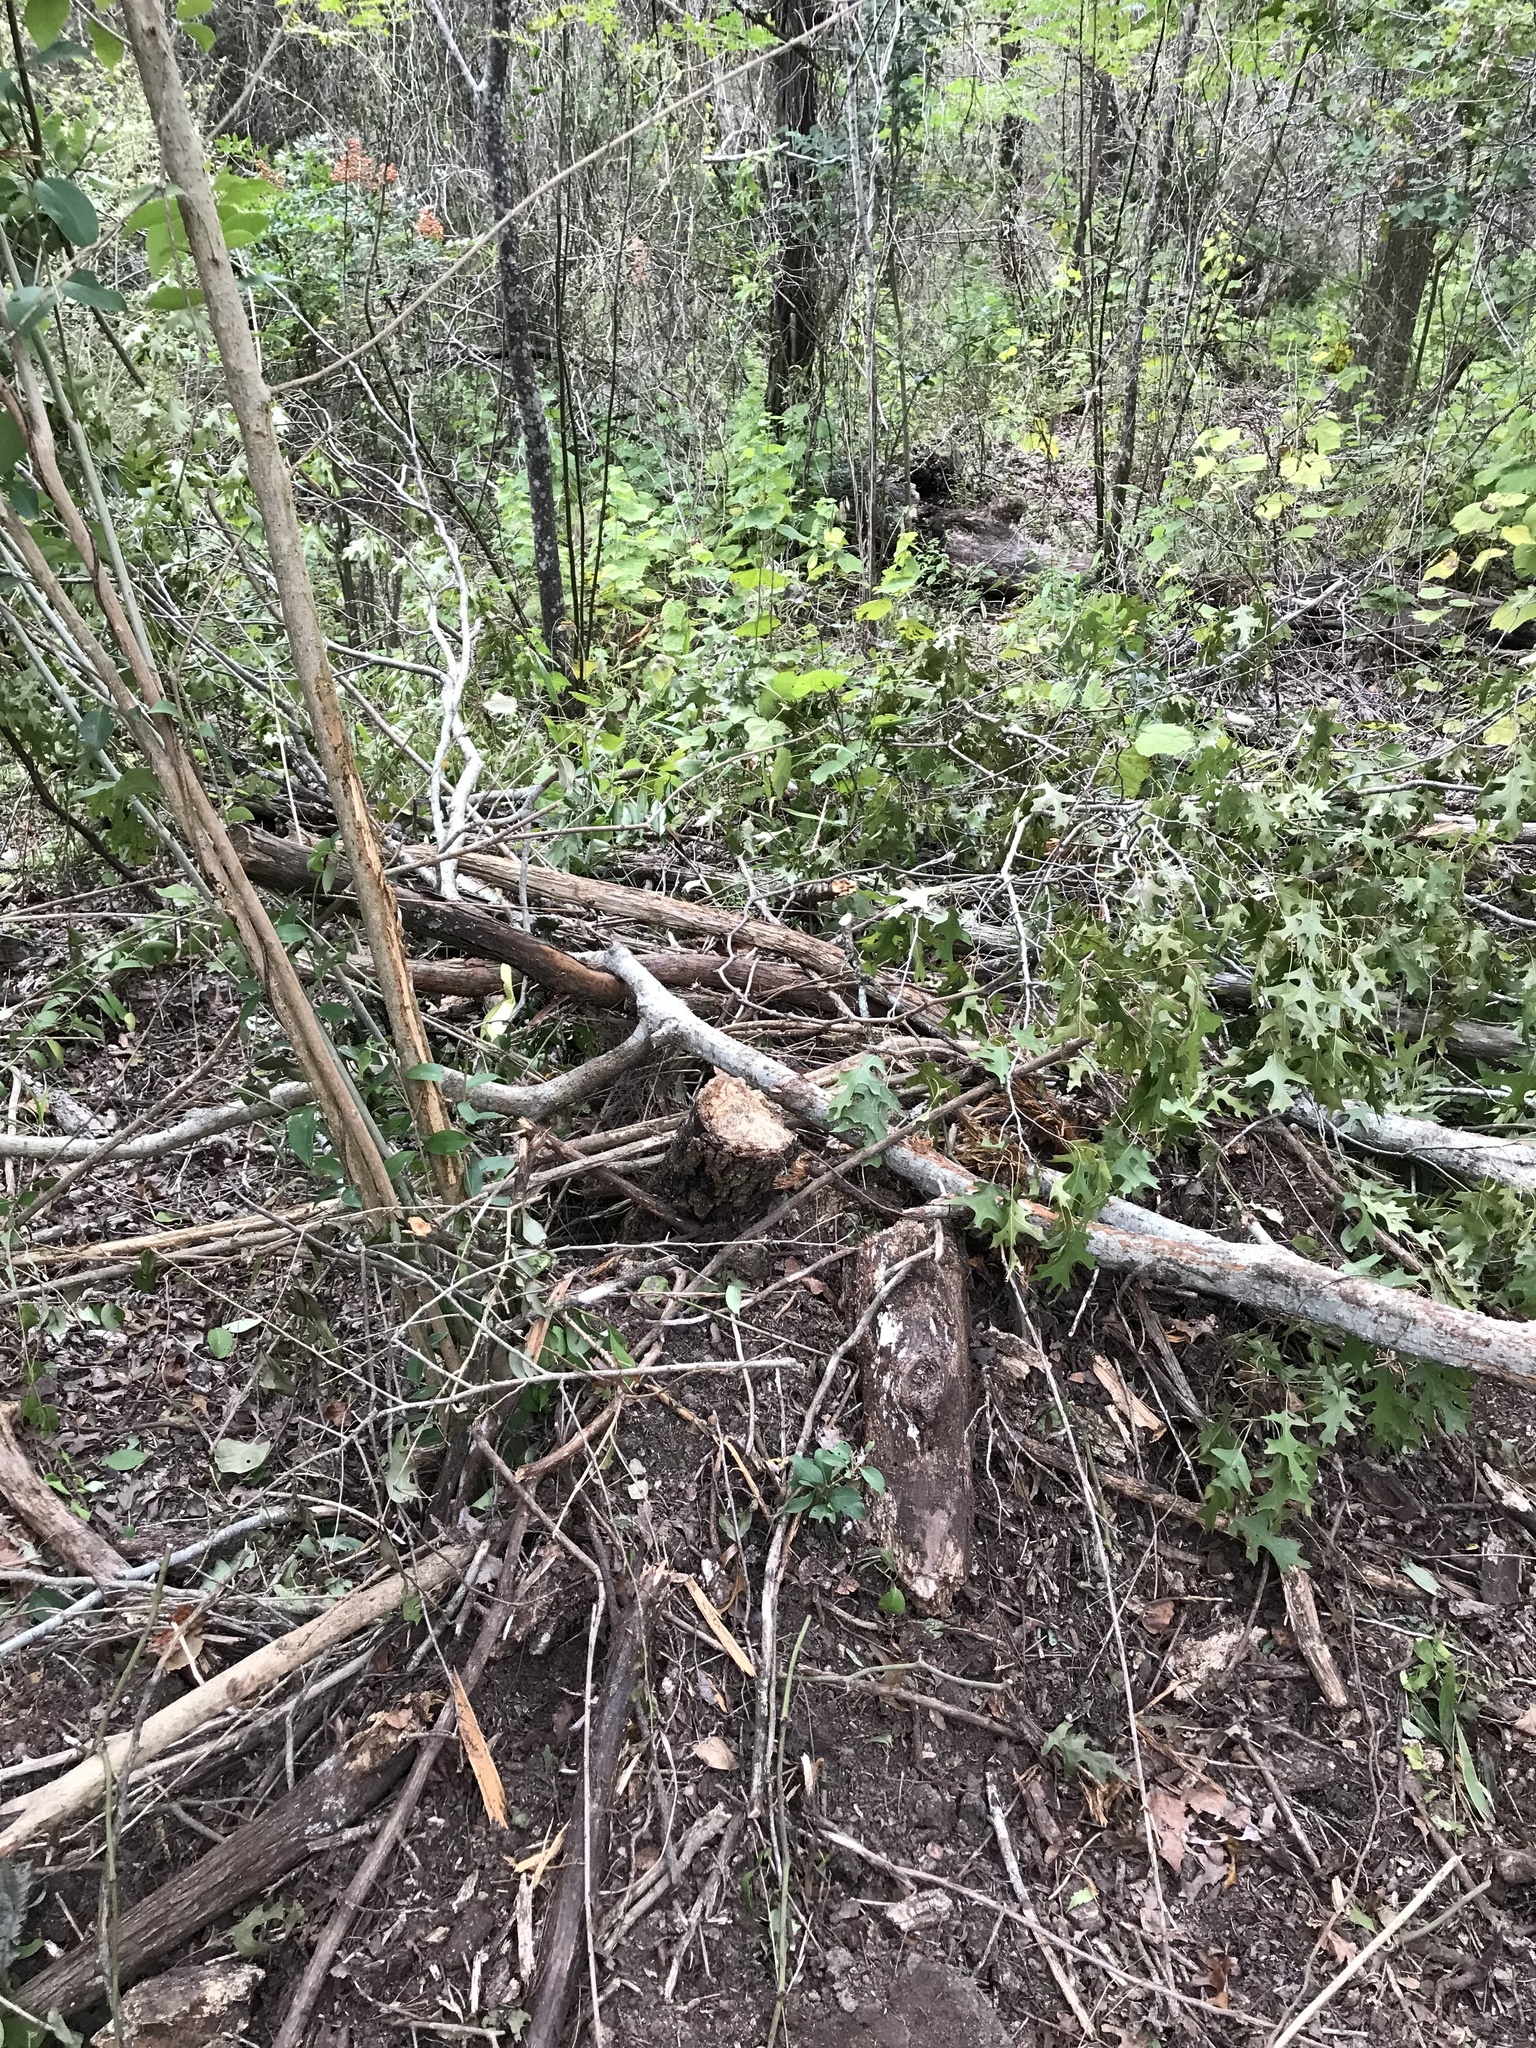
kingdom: Plantae
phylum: Tracheophyta
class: Magnoliopsida
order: Lamiales
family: Oleaceae
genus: Ligustrum
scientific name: Ligustrum lucidum
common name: Glossy privet
